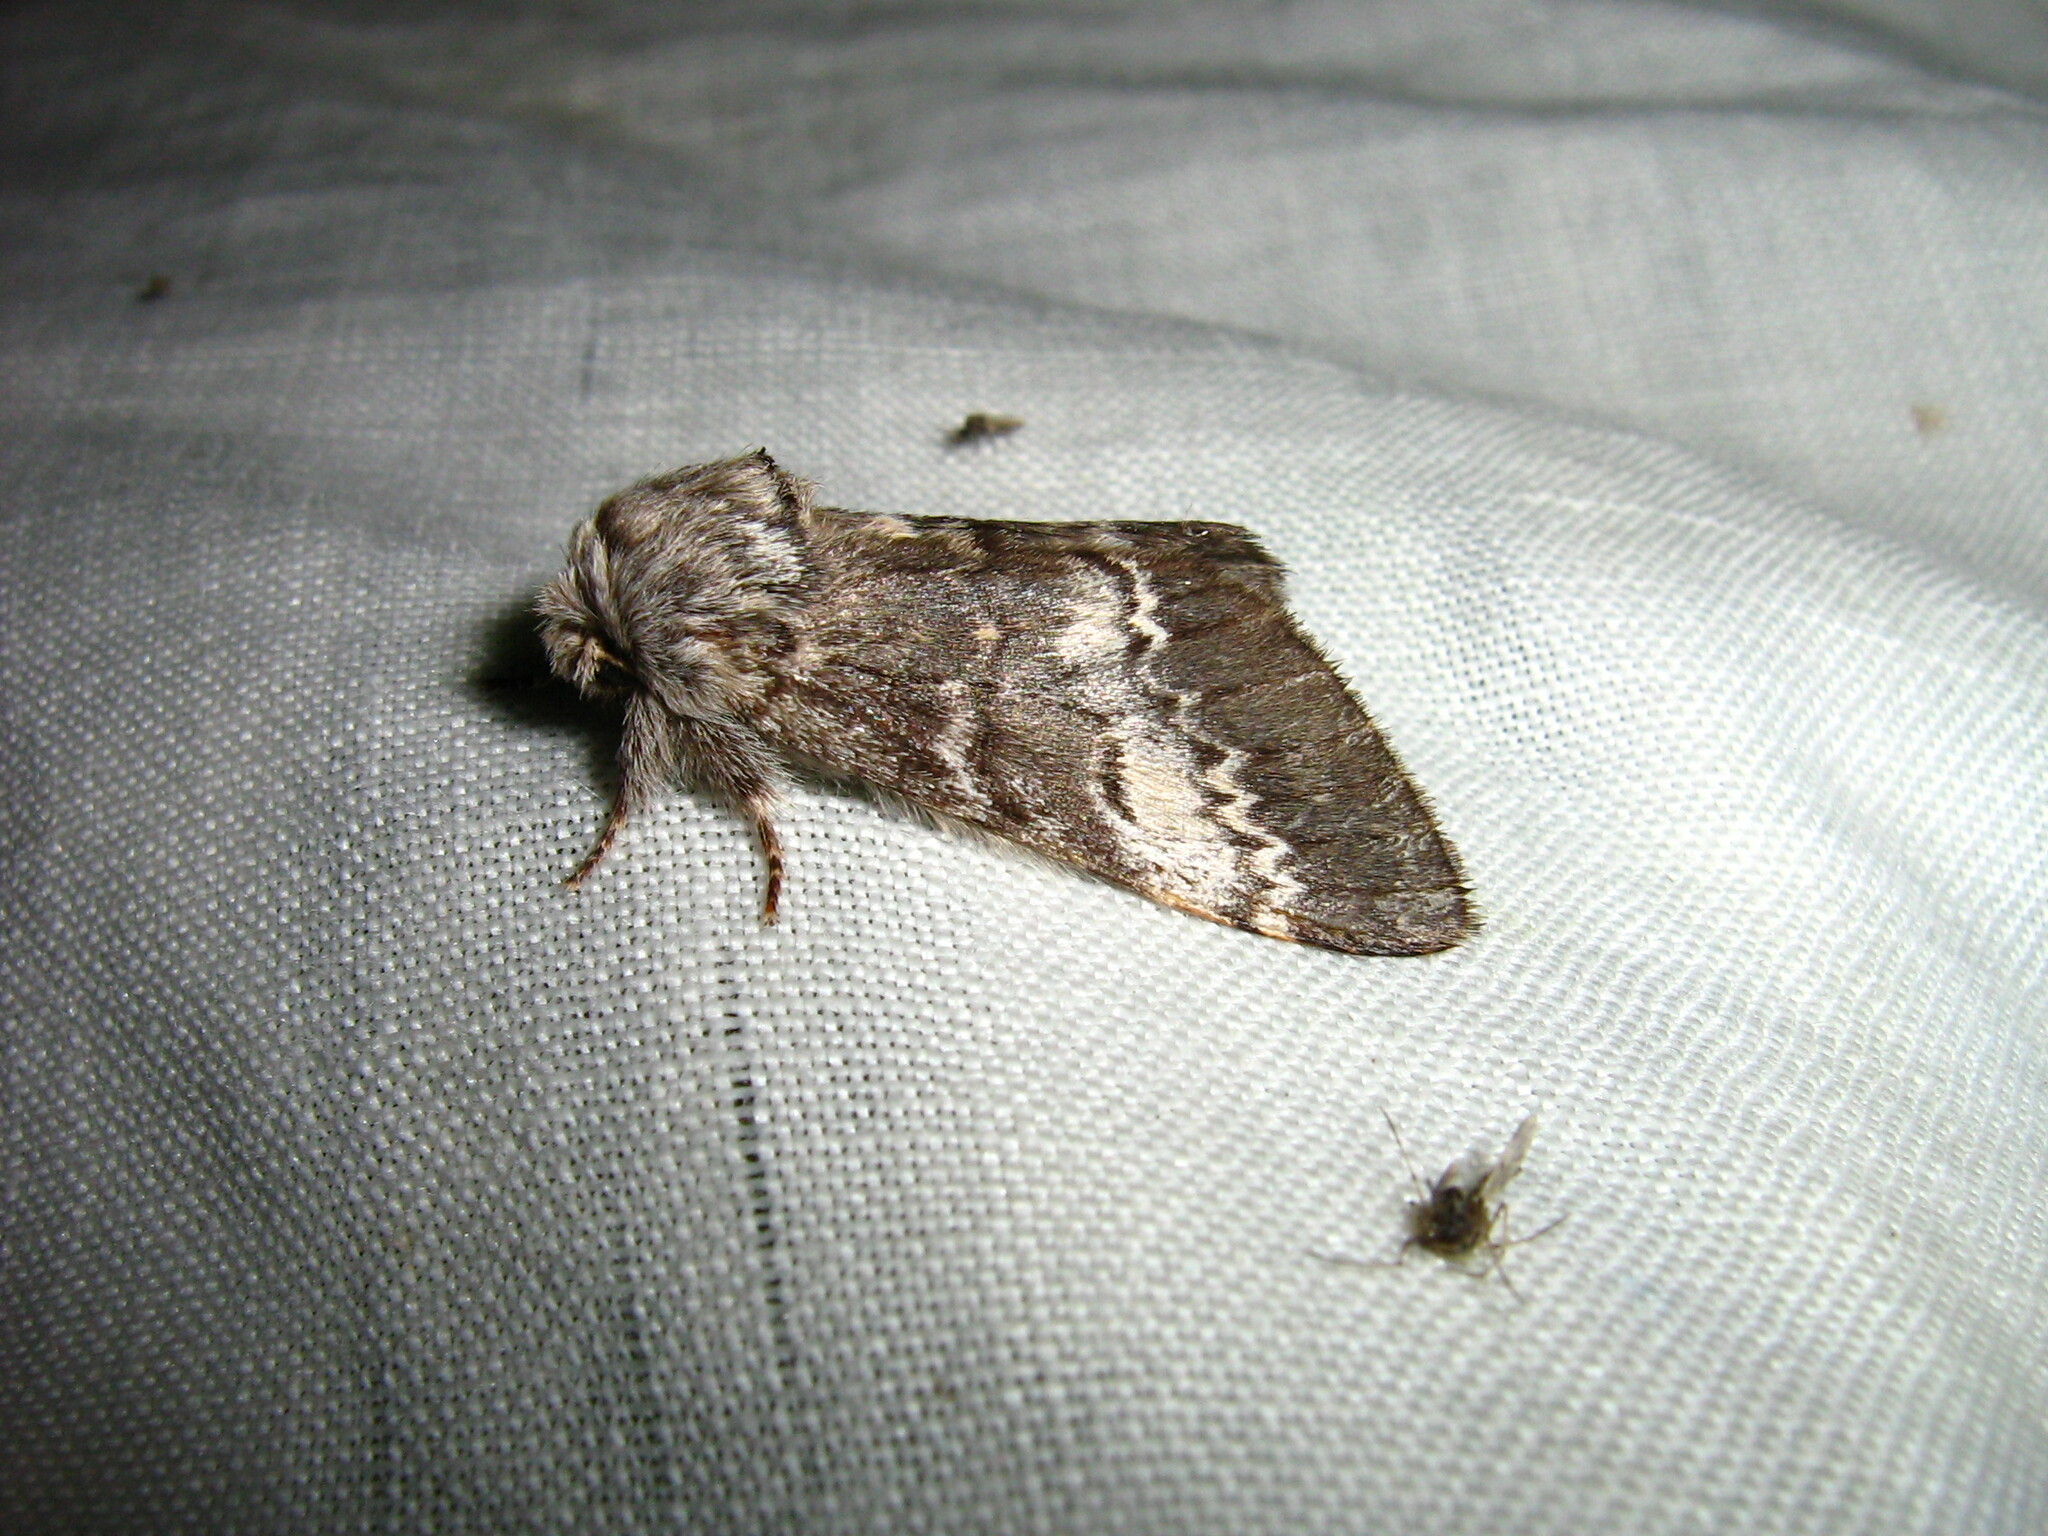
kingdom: Animalia
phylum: Arthropoda
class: Insecta
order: Lepidoptera
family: Notodontidae
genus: Drymonia
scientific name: Drymonia ruficornis
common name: Lunar marbled brown
